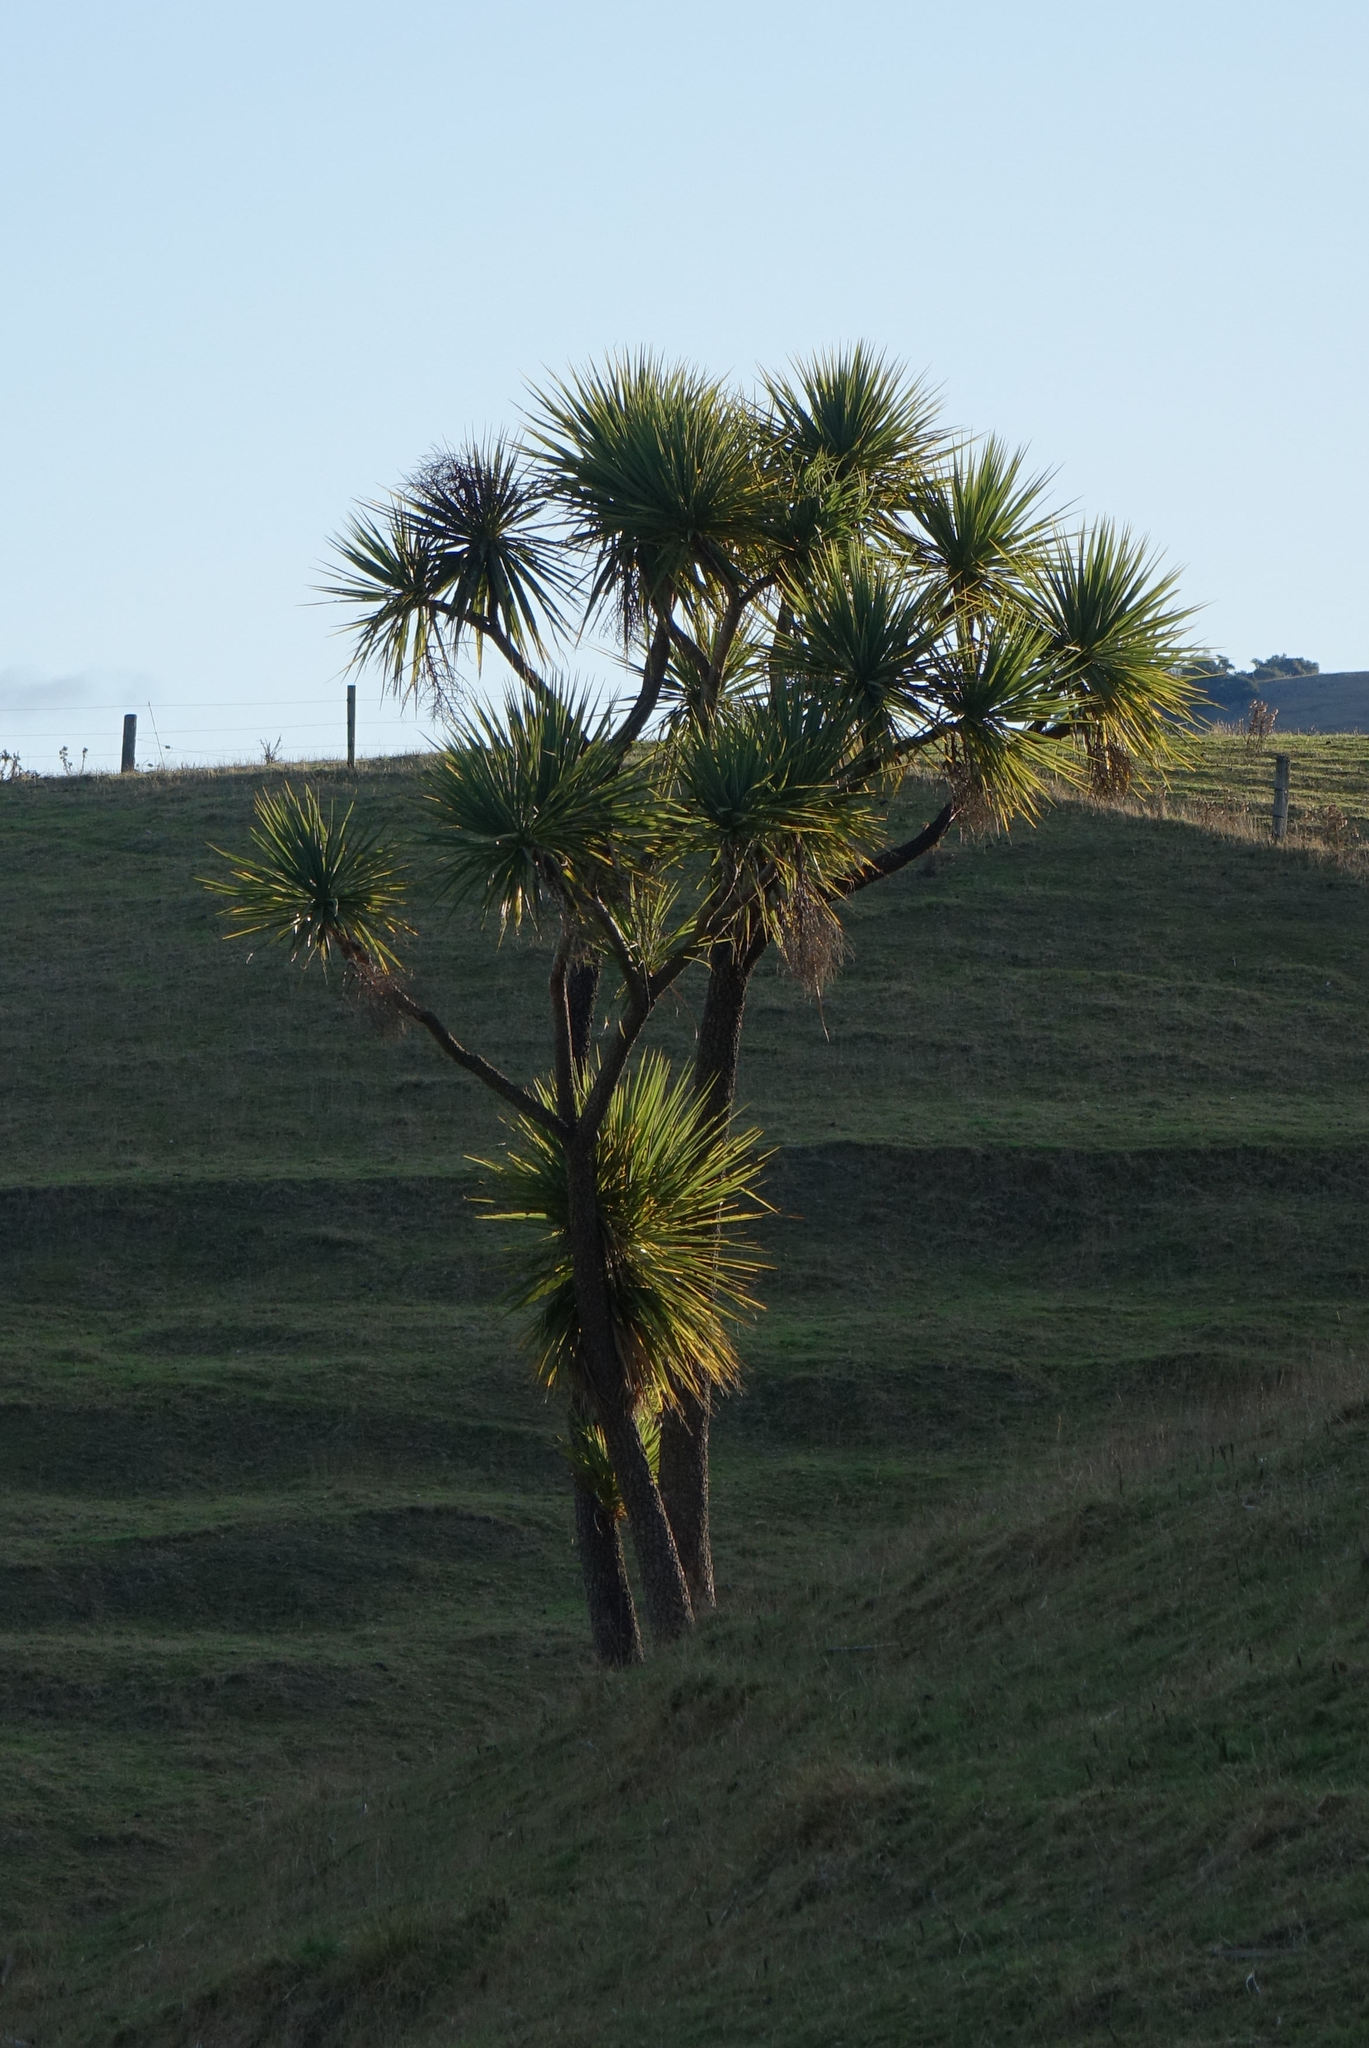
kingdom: Plantae
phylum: Tracheophyta
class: Liliopsida
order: Asparagales
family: Asparagaceae
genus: Cordyline
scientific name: Cordyline australis
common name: Cabbage-palm
